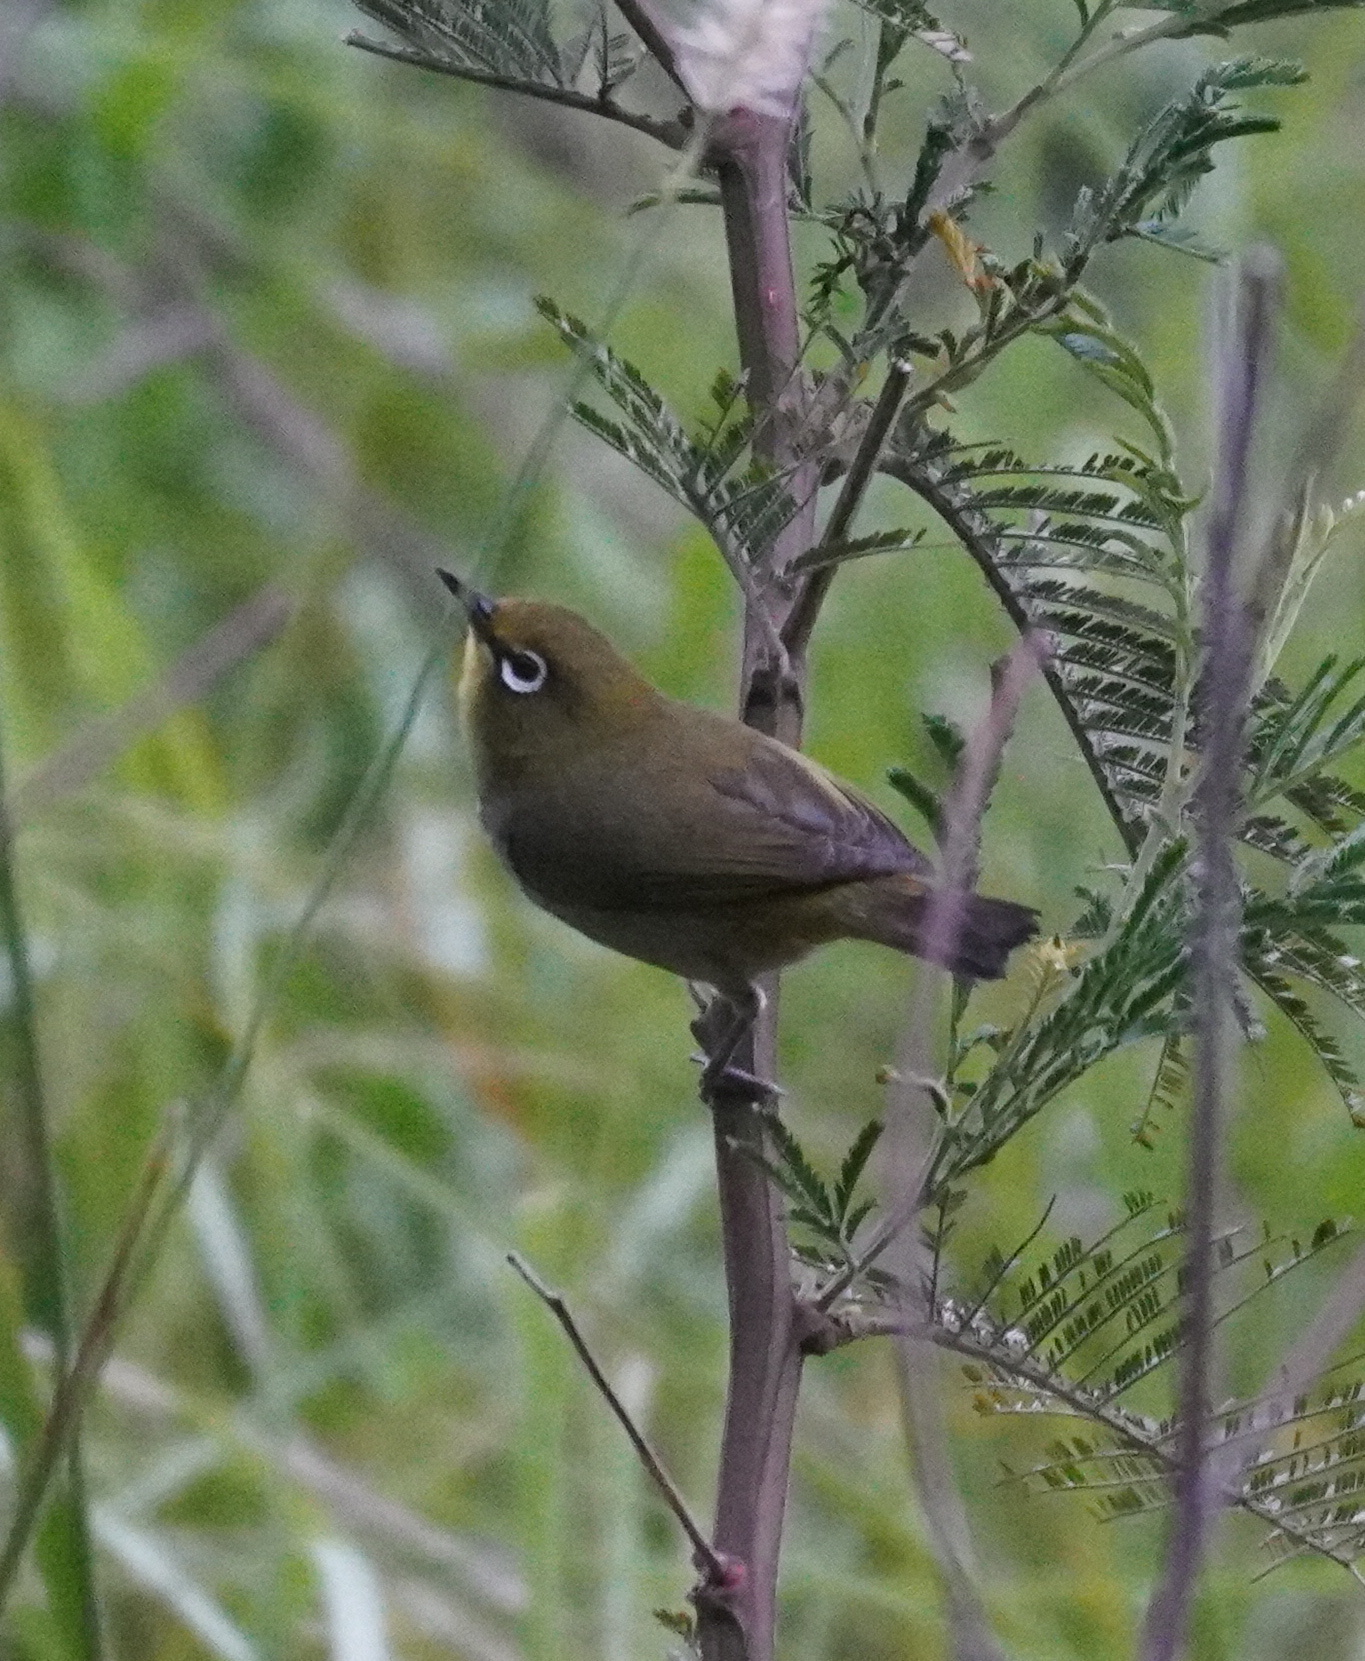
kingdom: Animalia
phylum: Chordata
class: Aves
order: Passeriformes
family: Zosteropidae
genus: Zosterops
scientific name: Zosterops virens
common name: Cape white-eye
